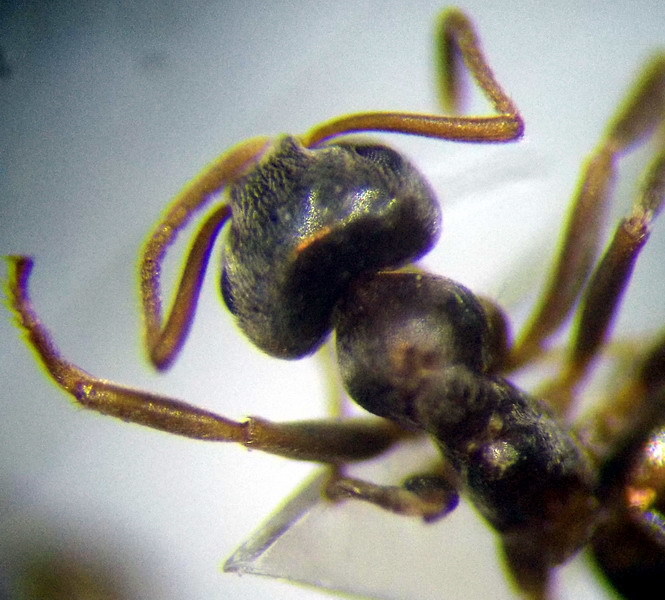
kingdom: Animalia
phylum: Arthropoda
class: Insecta
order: Hymenoptera
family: Formicidae
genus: Lasius
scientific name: Lasius alienus
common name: Alien field ant
